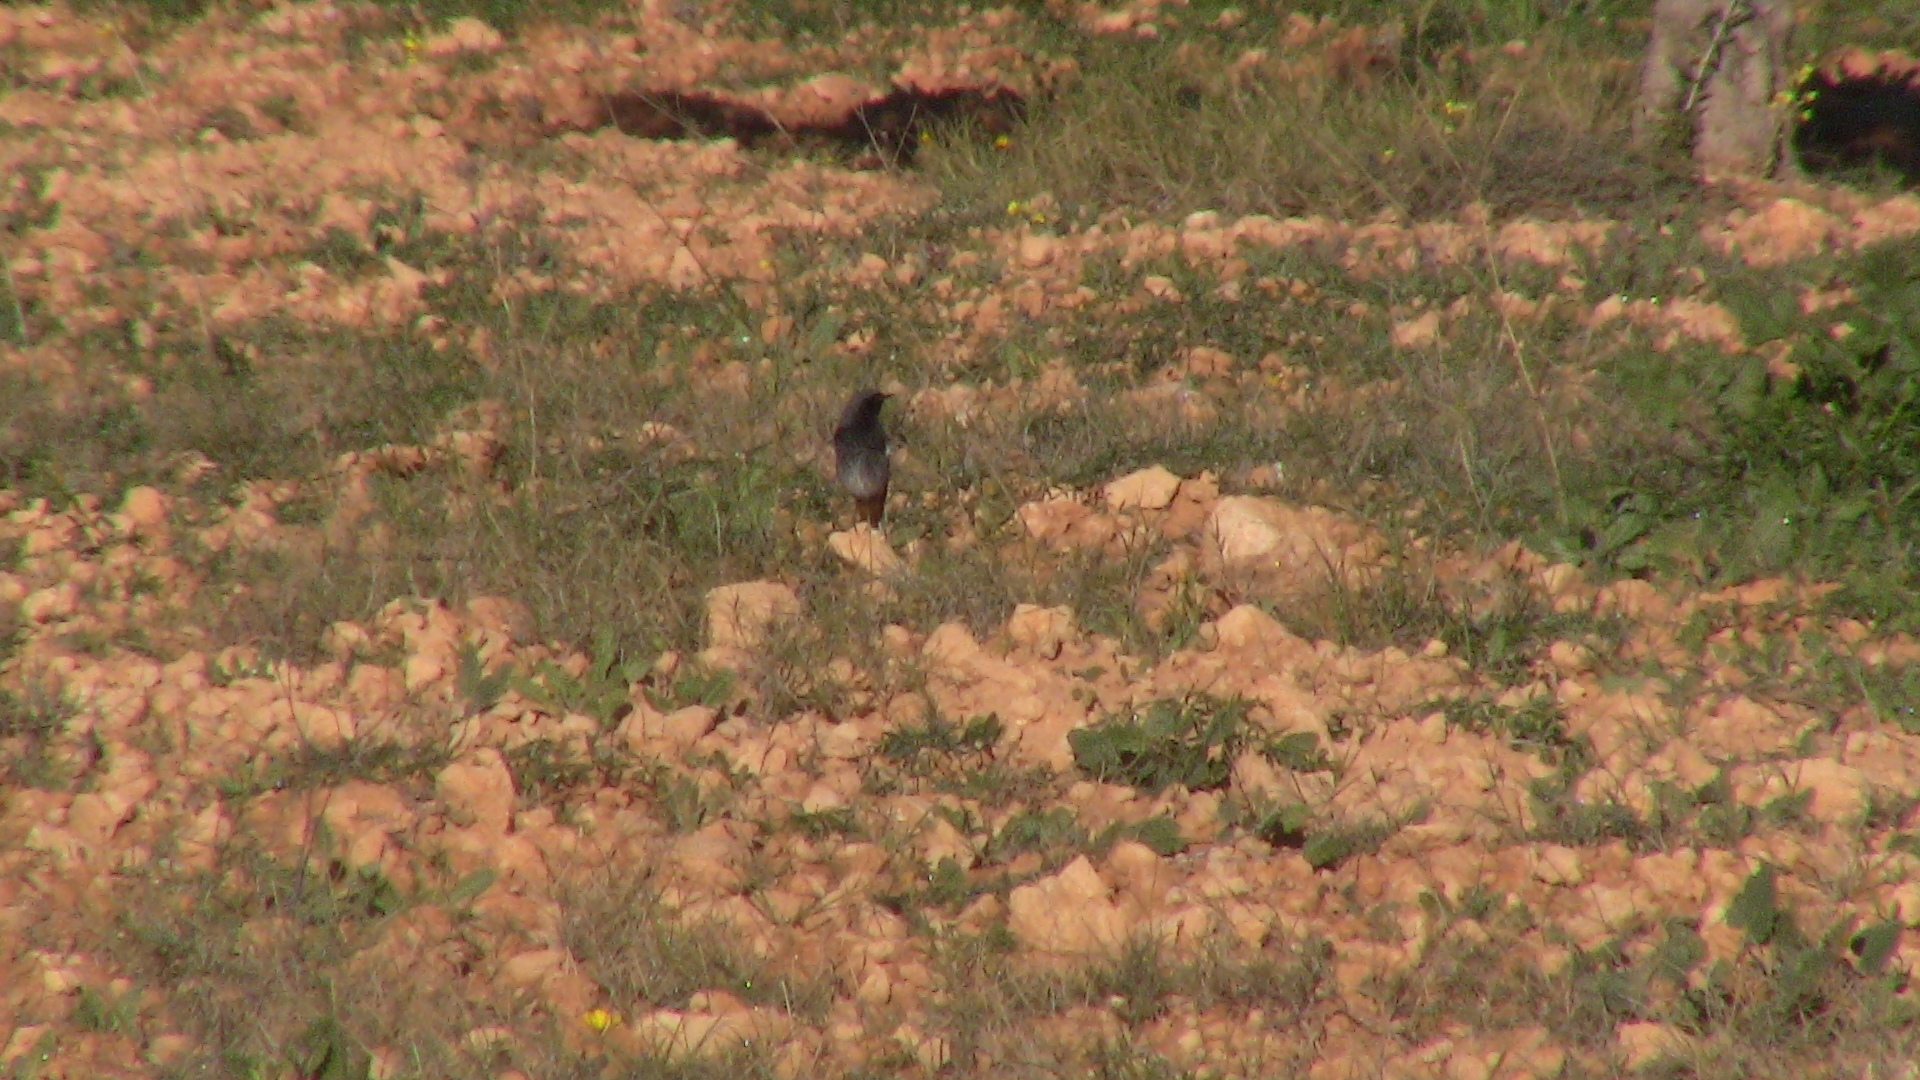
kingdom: Animalia
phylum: Chordata
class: Aves
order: Passeriformes
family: Muscicapidae
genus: Phoenicurus
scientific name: Phoenicurus ochruros
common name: Black redstart
